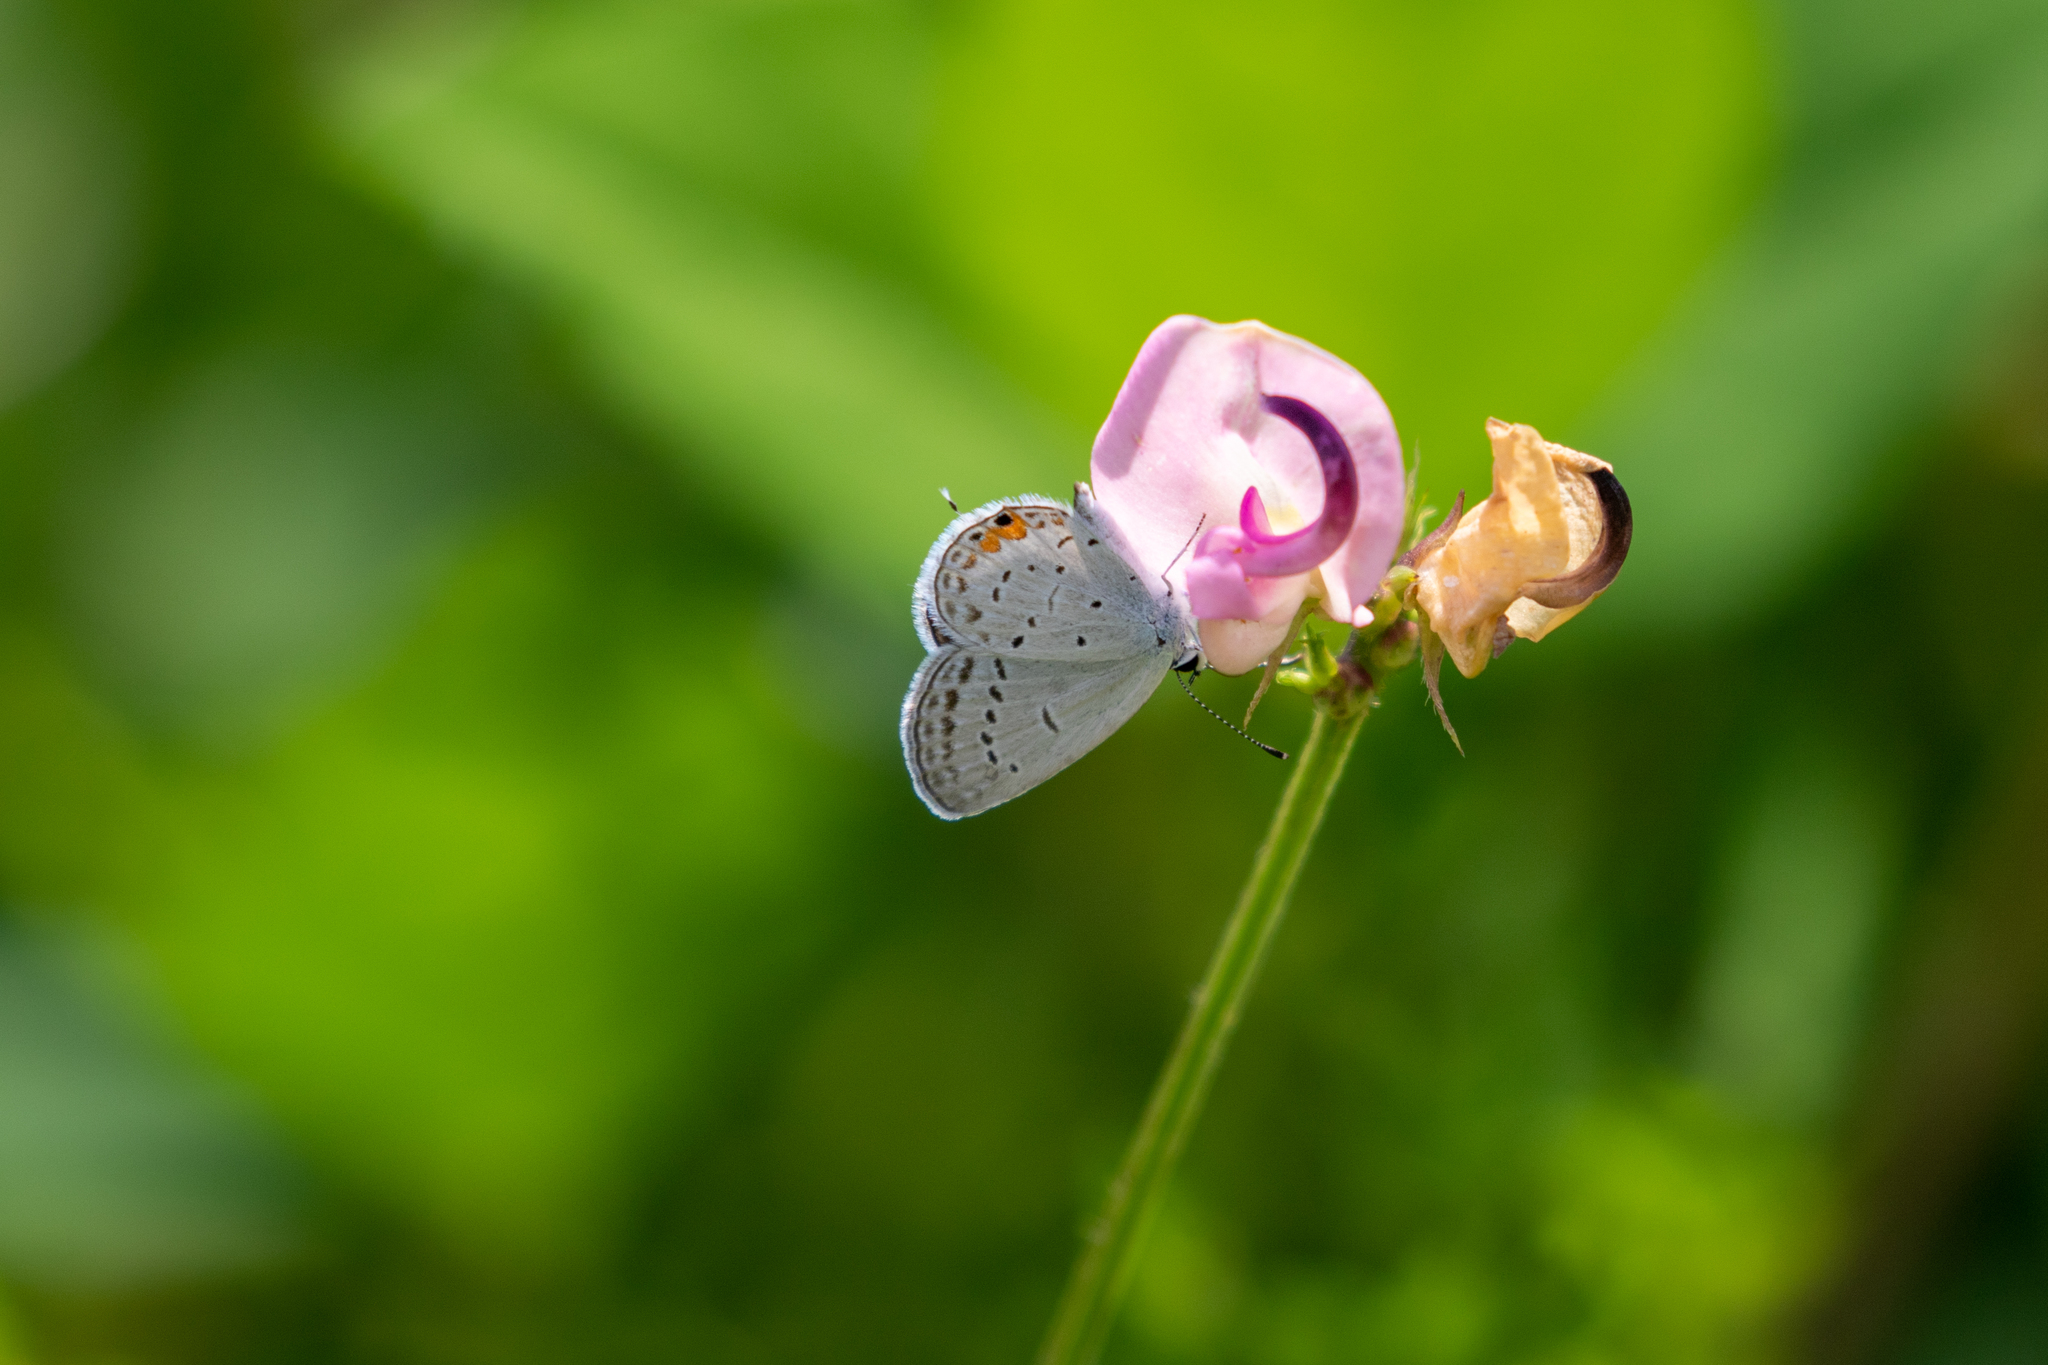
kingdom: Animalia
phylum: Arthropoda
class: Insecta
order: Lepidoptera
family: Lycaenidae
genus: Elkalyce
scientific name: Elkalyce comyntas
